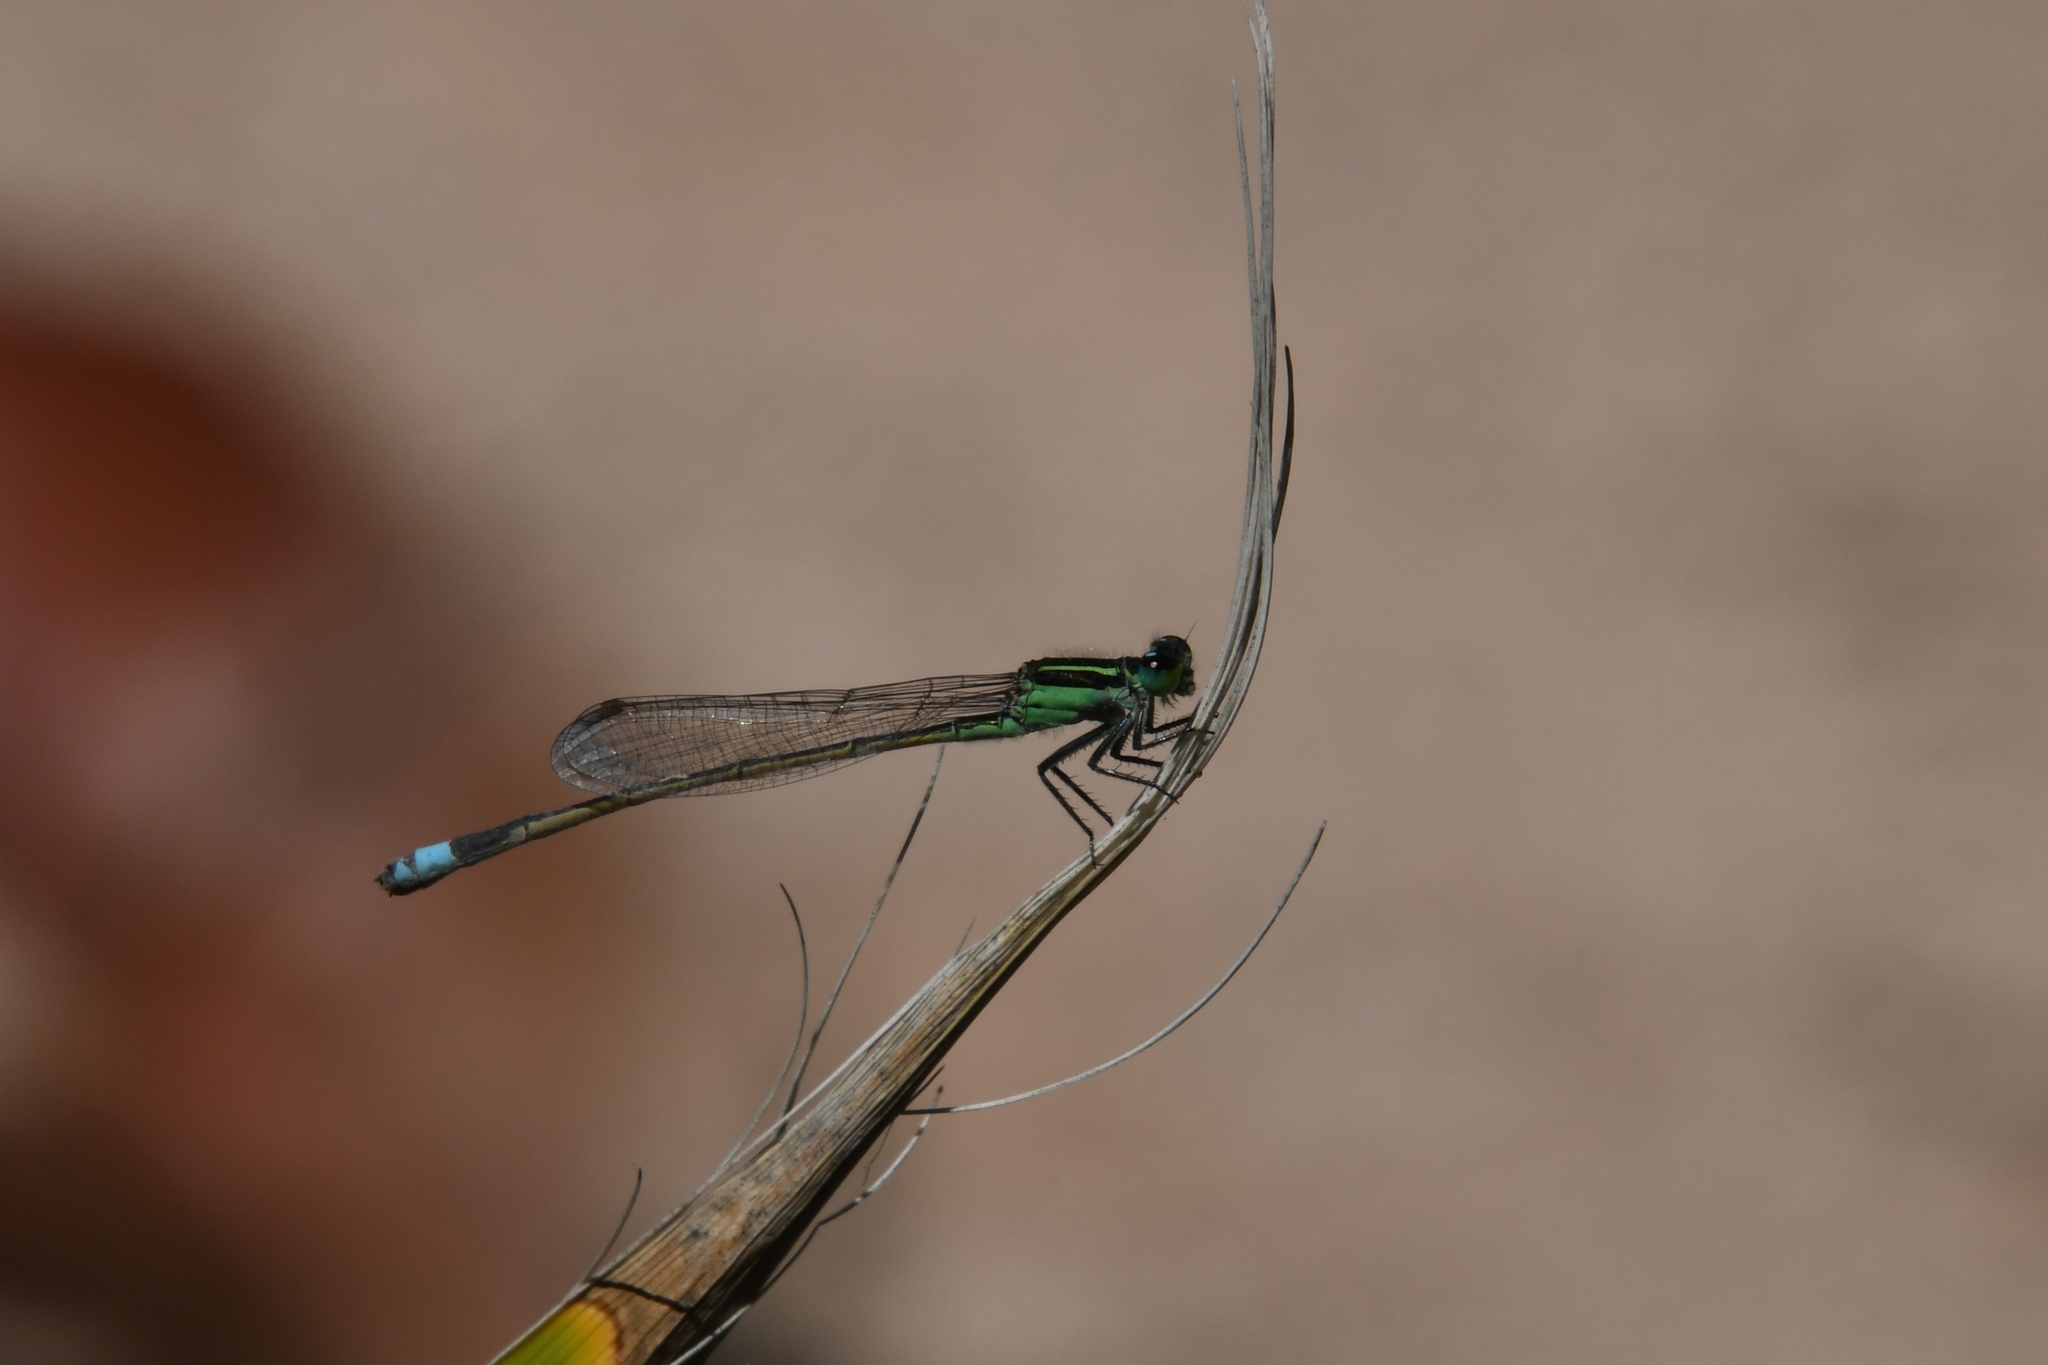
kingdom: Animalia
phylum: Arthropoda
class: Insecta
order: Odonata
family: Coenagrionidae
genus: Ischnura
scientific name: Ischnura ramburii
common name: Rambur's forktail
